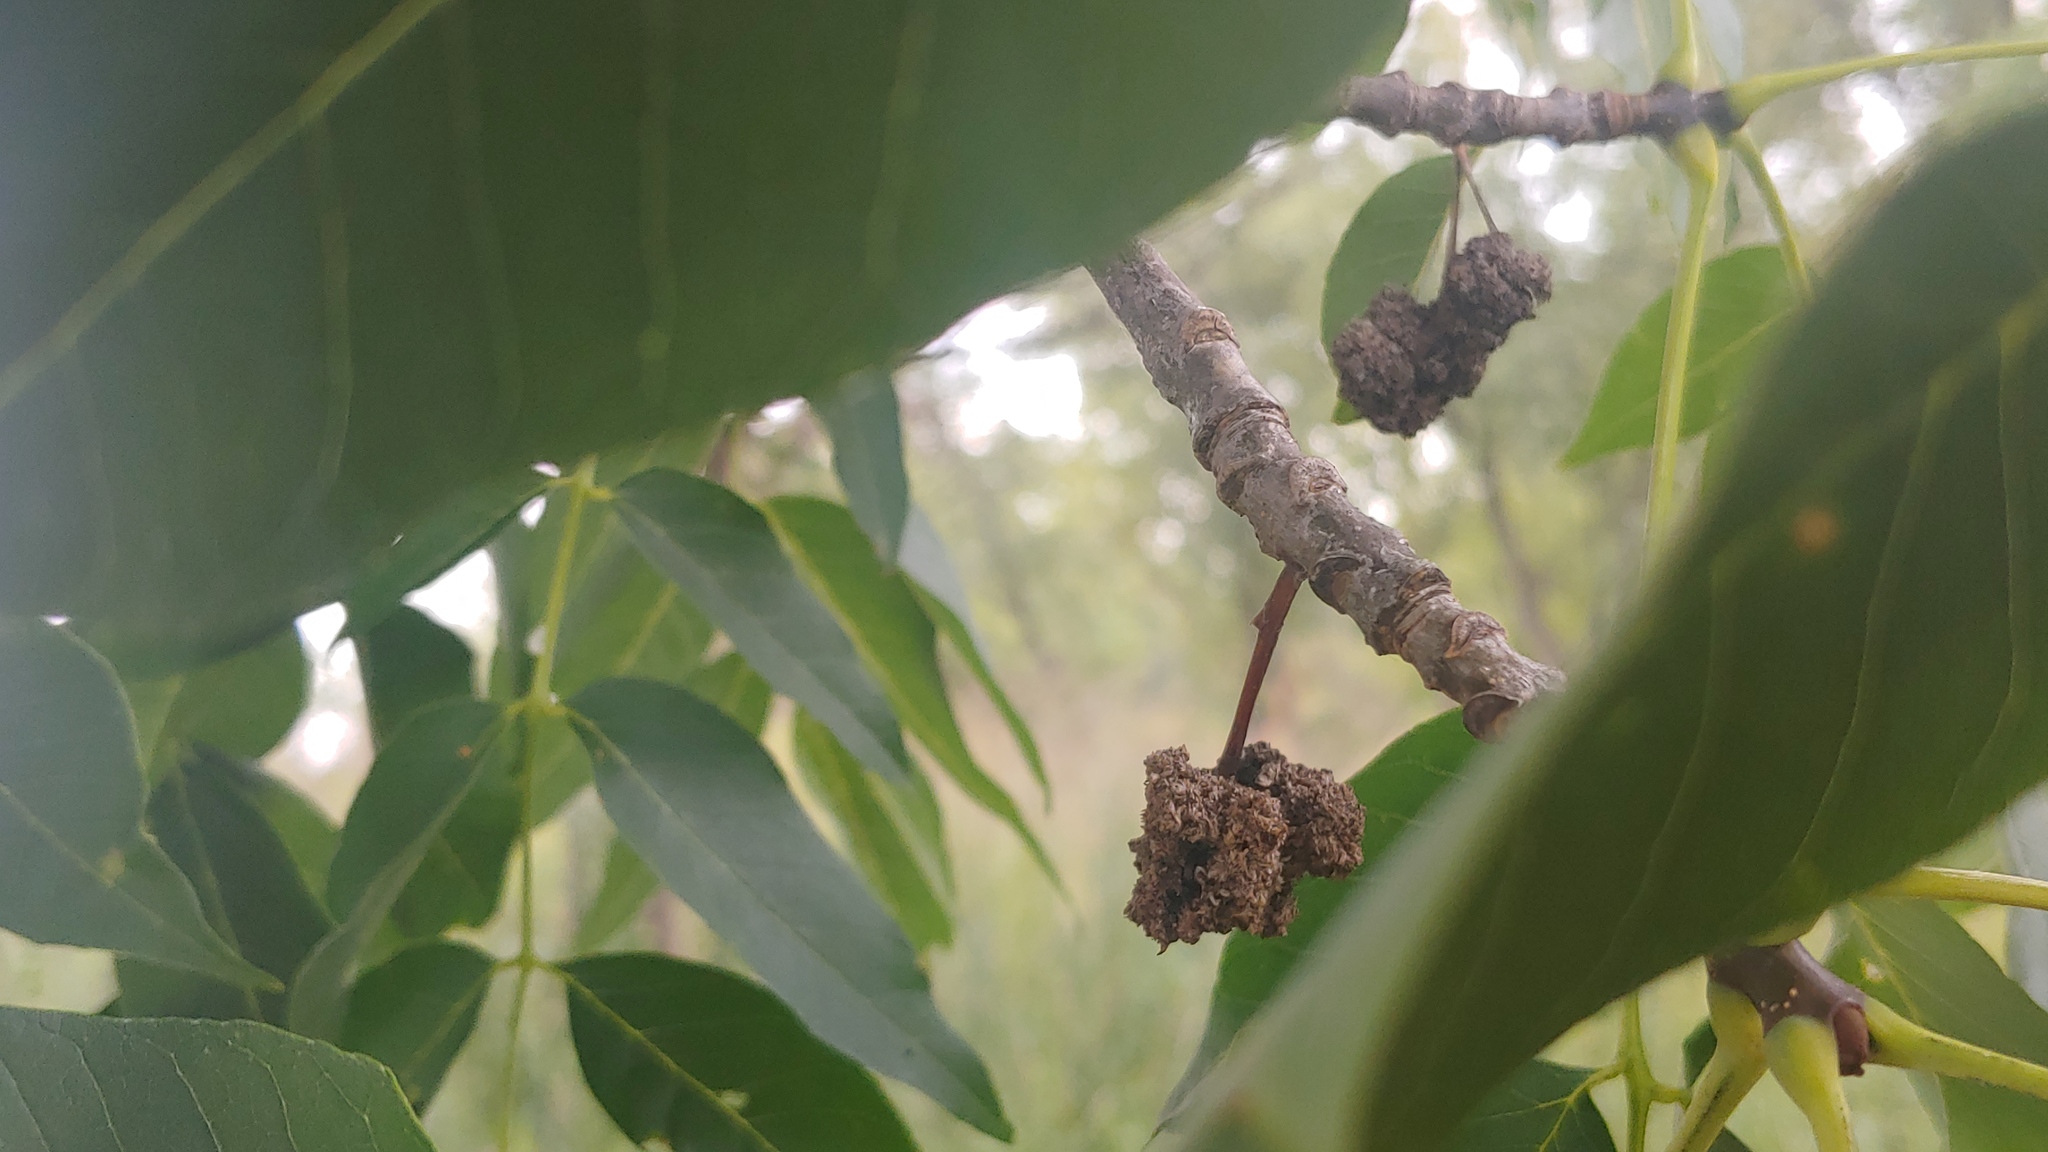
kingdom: Animalia
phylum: Arthropoda
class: Arachnida
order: Trombidiformes
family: Eriophyidae
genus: Aceria
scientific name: Aceria fraxiniflora
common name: Ash flower gall mite
